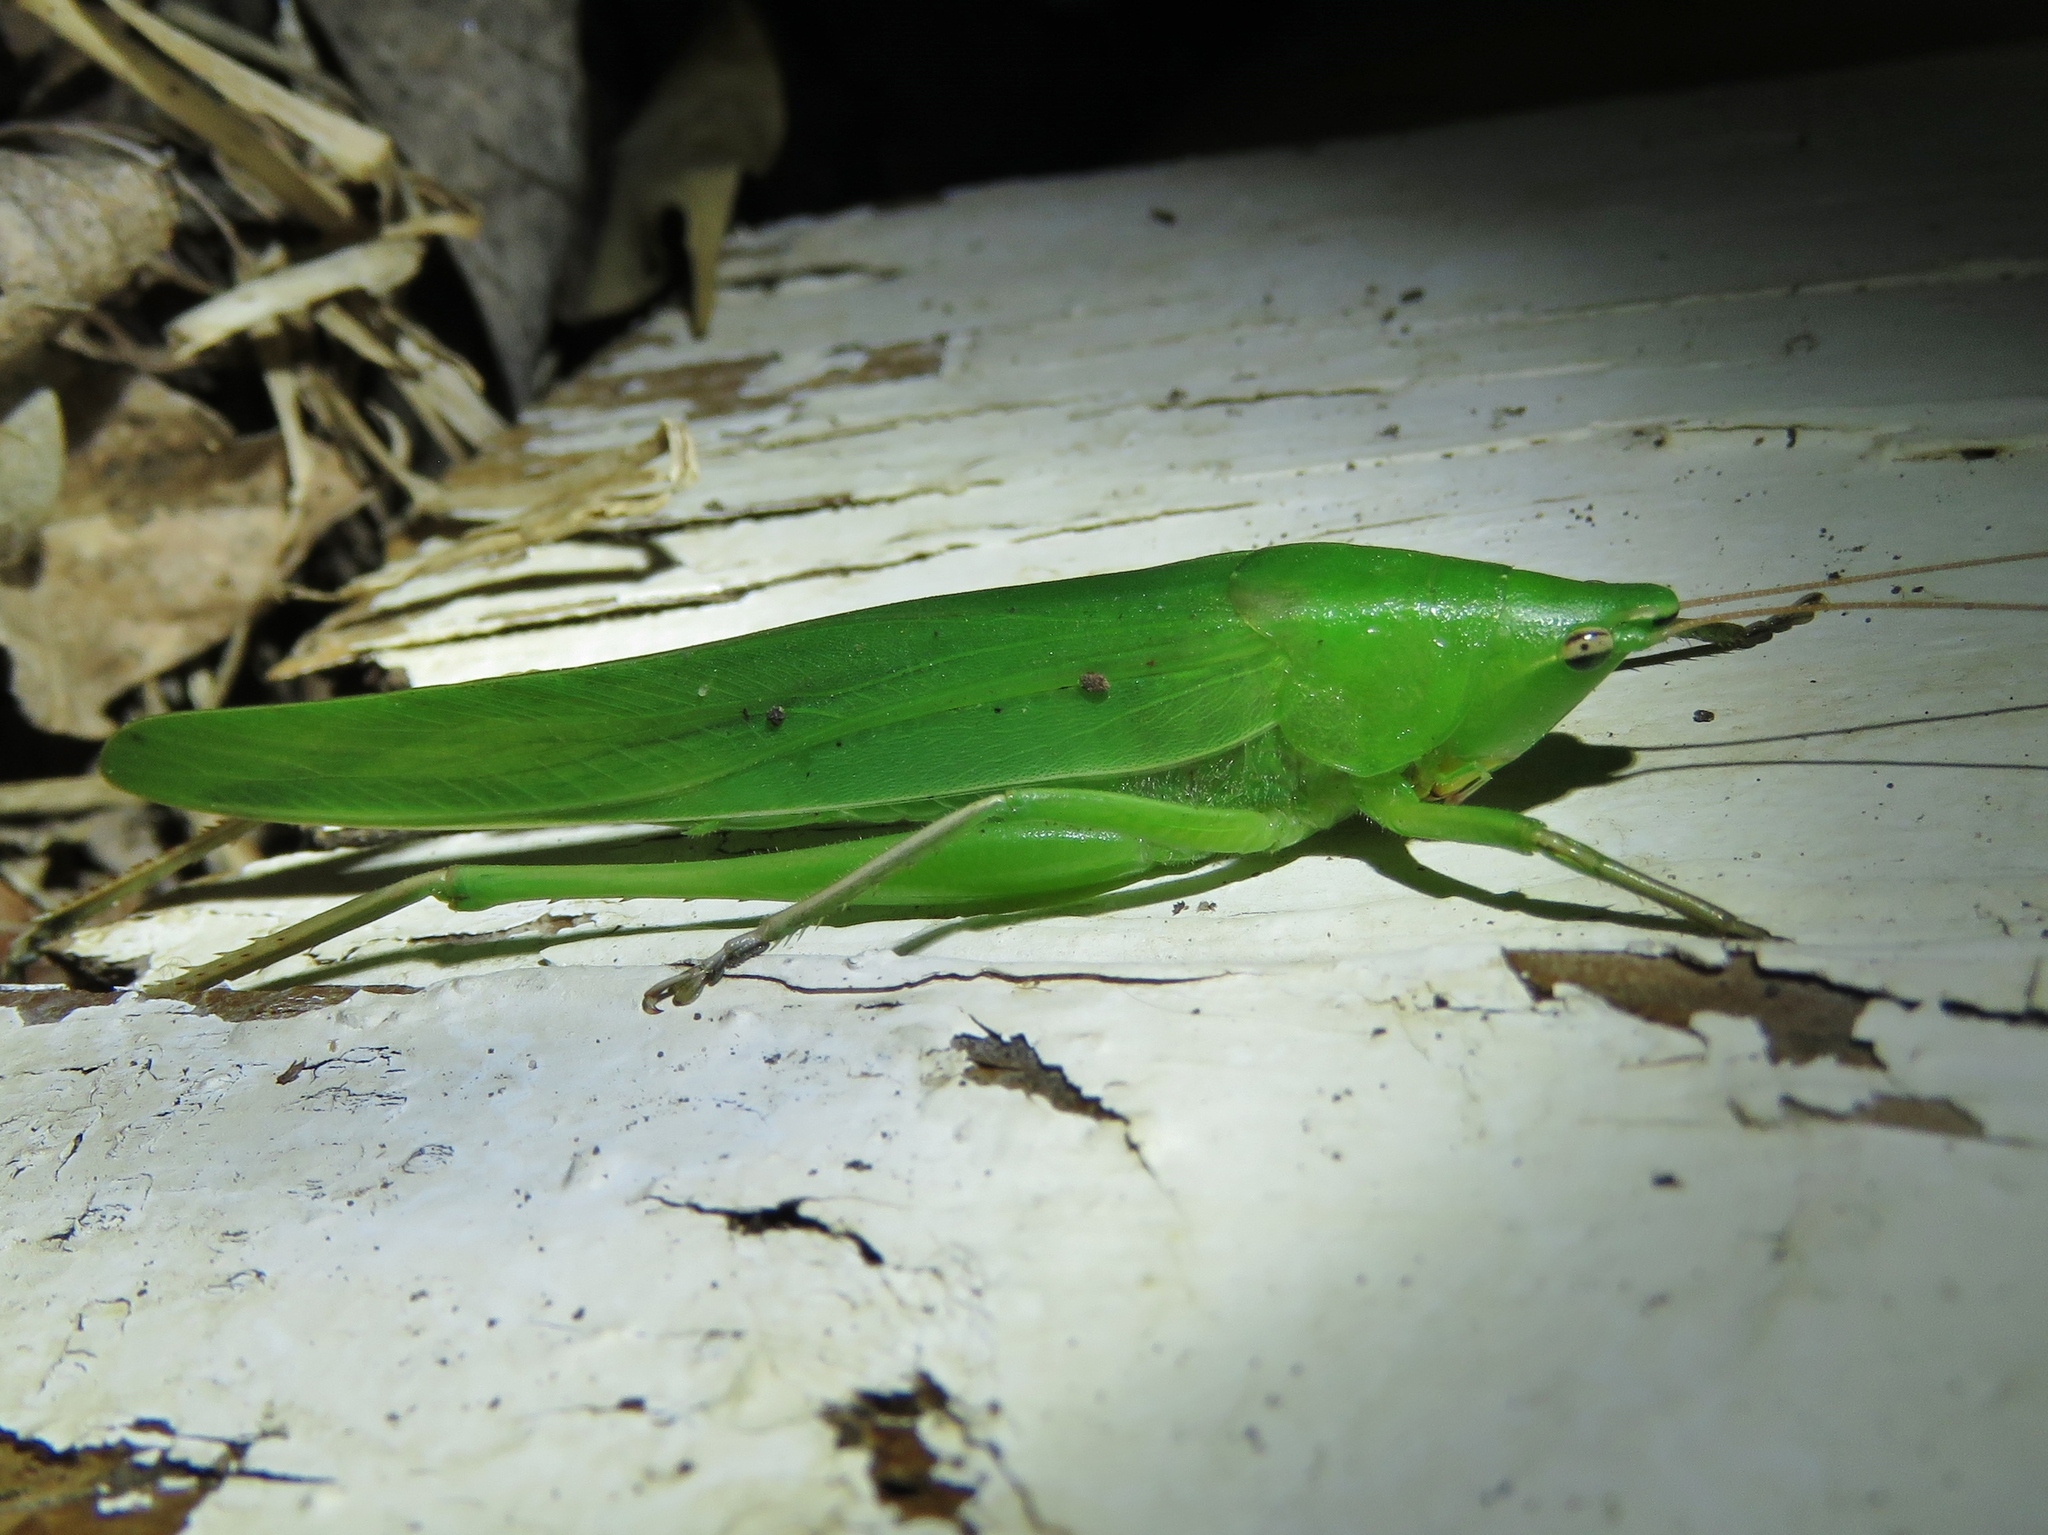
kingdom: Animalia
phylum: Arthropoda
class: Insecta
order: Orthoptera
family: Tettigoniidae
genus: Neoconocephalus
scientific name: Neoconocephalus triops
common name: Broad-tipped conehead
